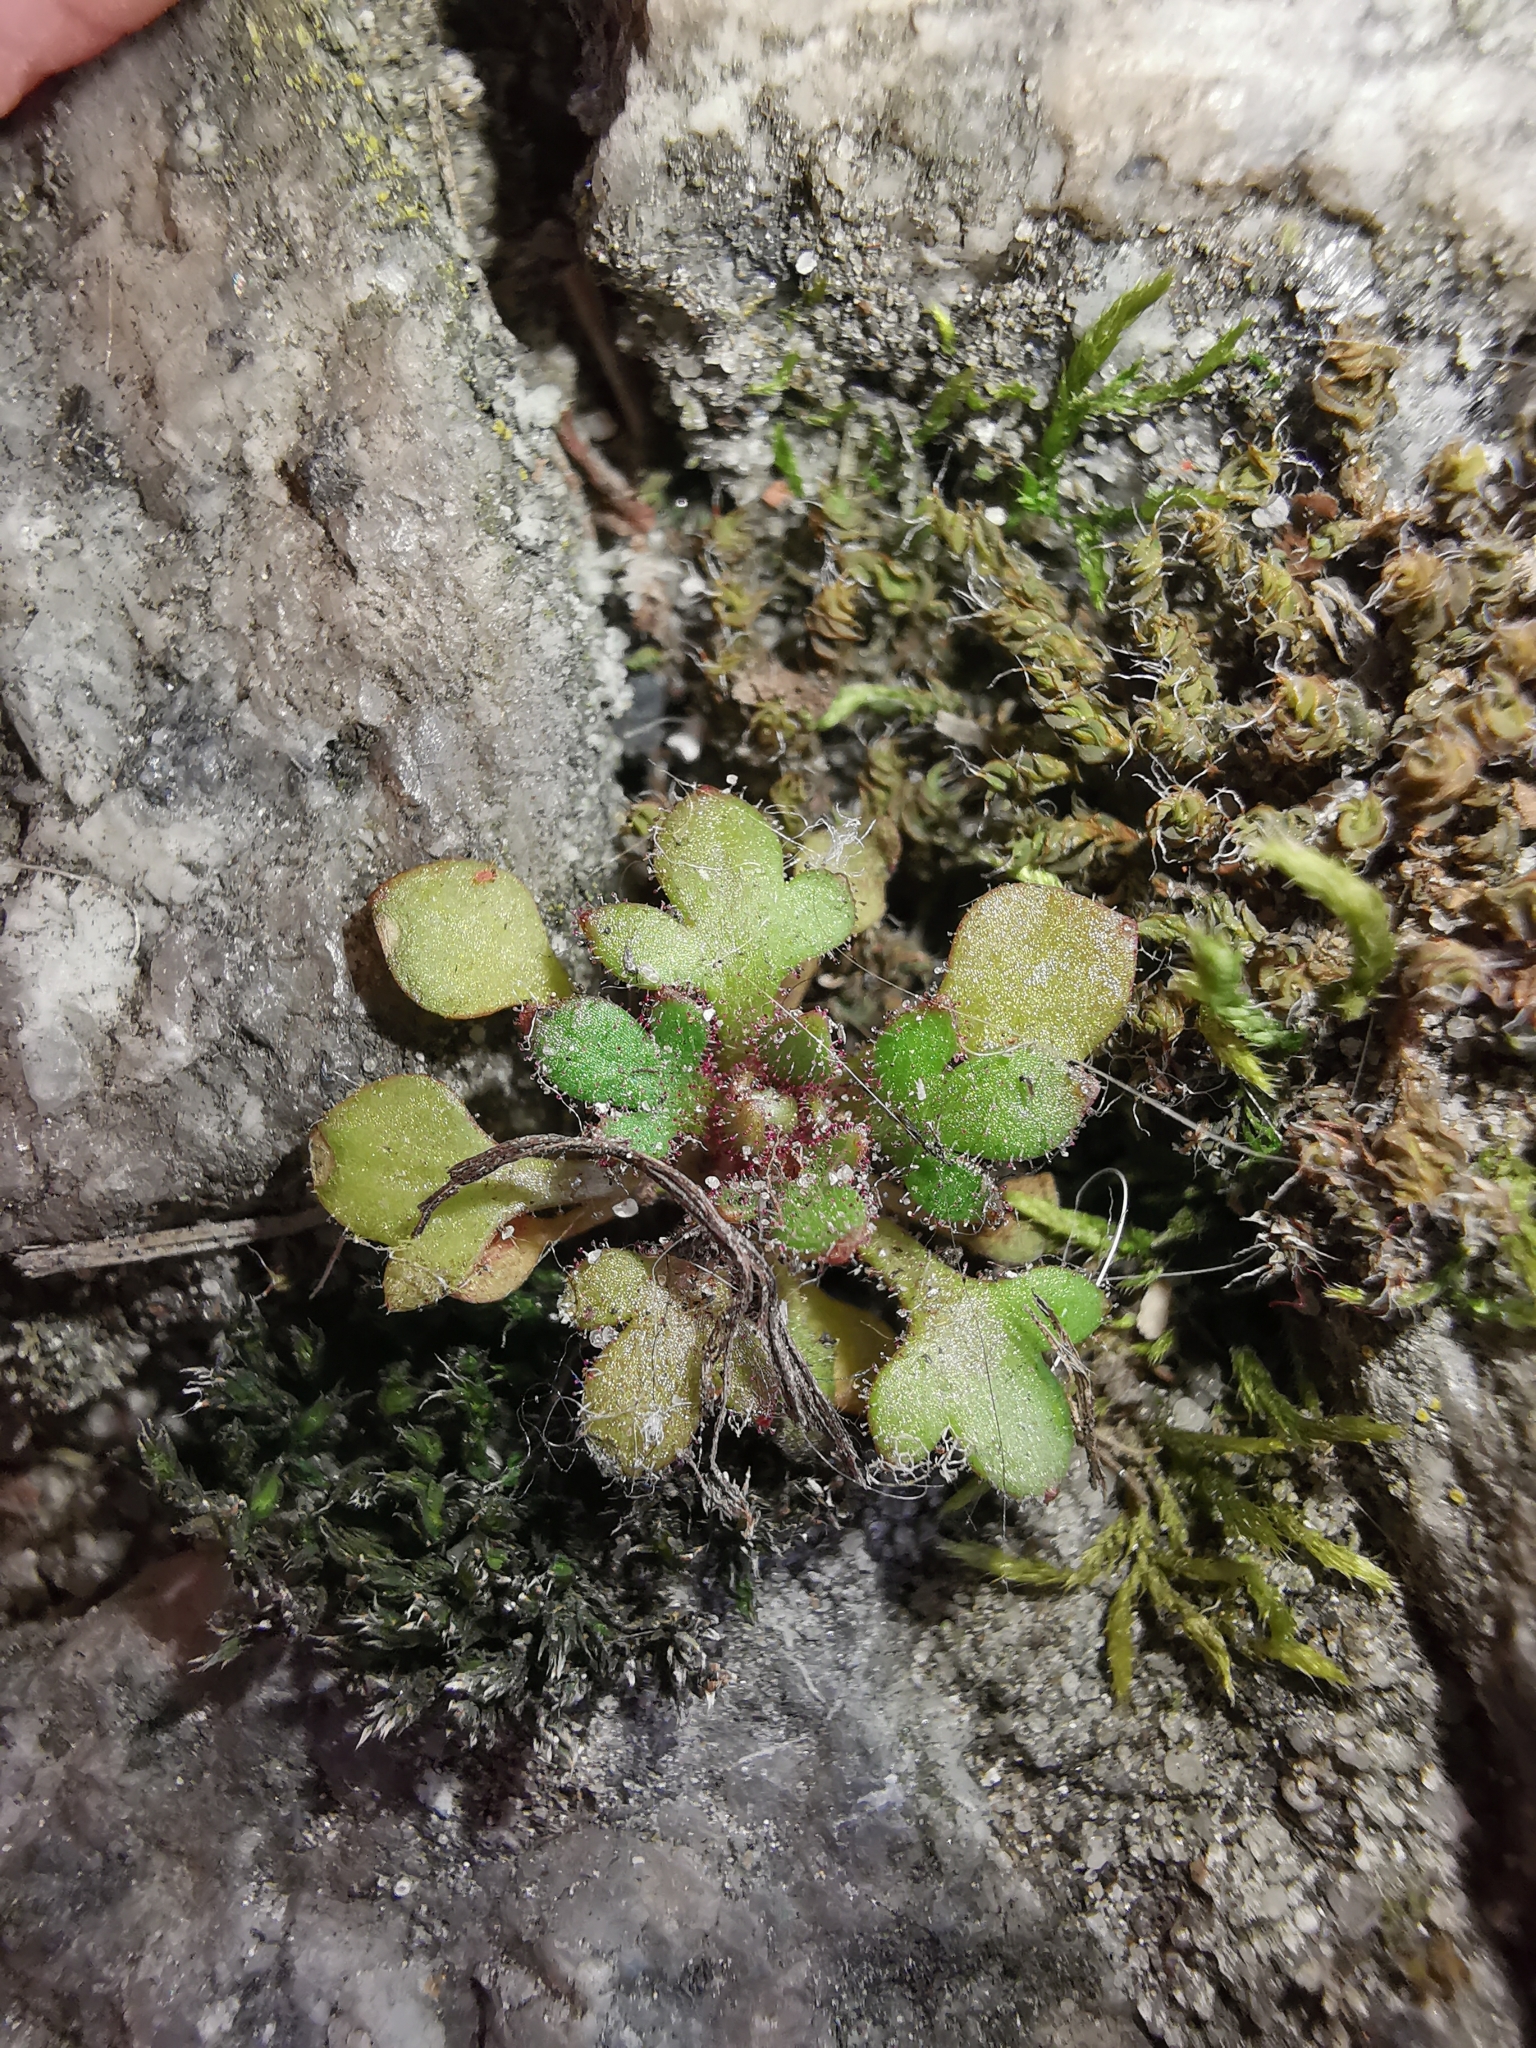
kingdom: Plantae
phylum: Tracheophyta
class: Magnoliopsida
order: Saxifragales
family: Saxifragaceae
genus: Saxifraga
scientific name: Saxifraga tridactylites
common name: Rue-leaved saxifrage
